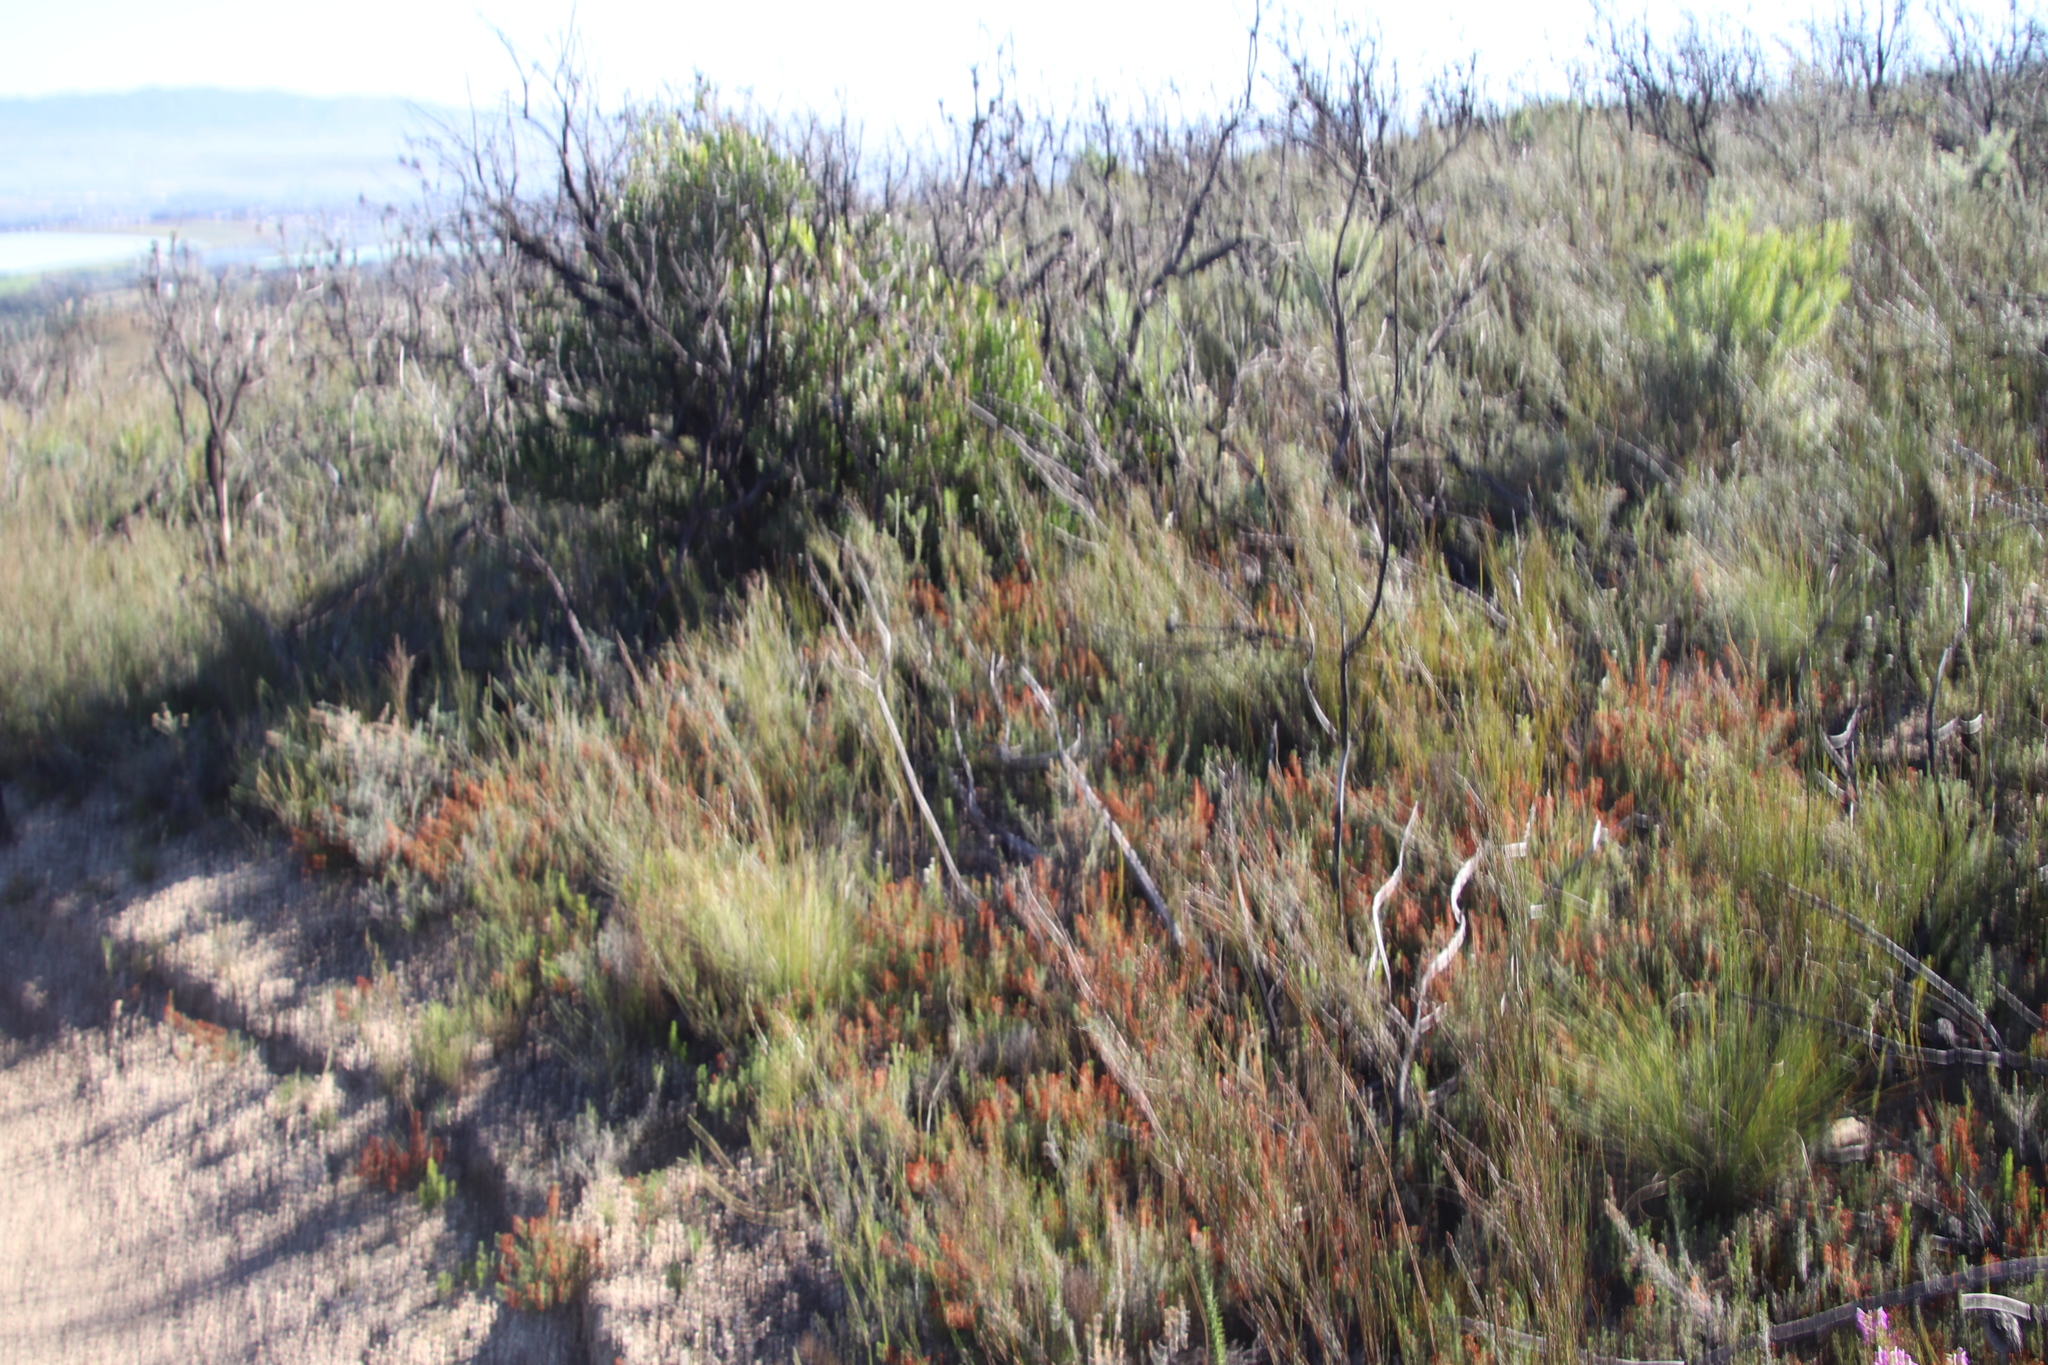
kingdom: Plantae
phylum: Tracheophyta
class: Magnoliopsida
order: Ericales
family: Ericaceae
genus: Erica
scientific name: Erica nudiflora
